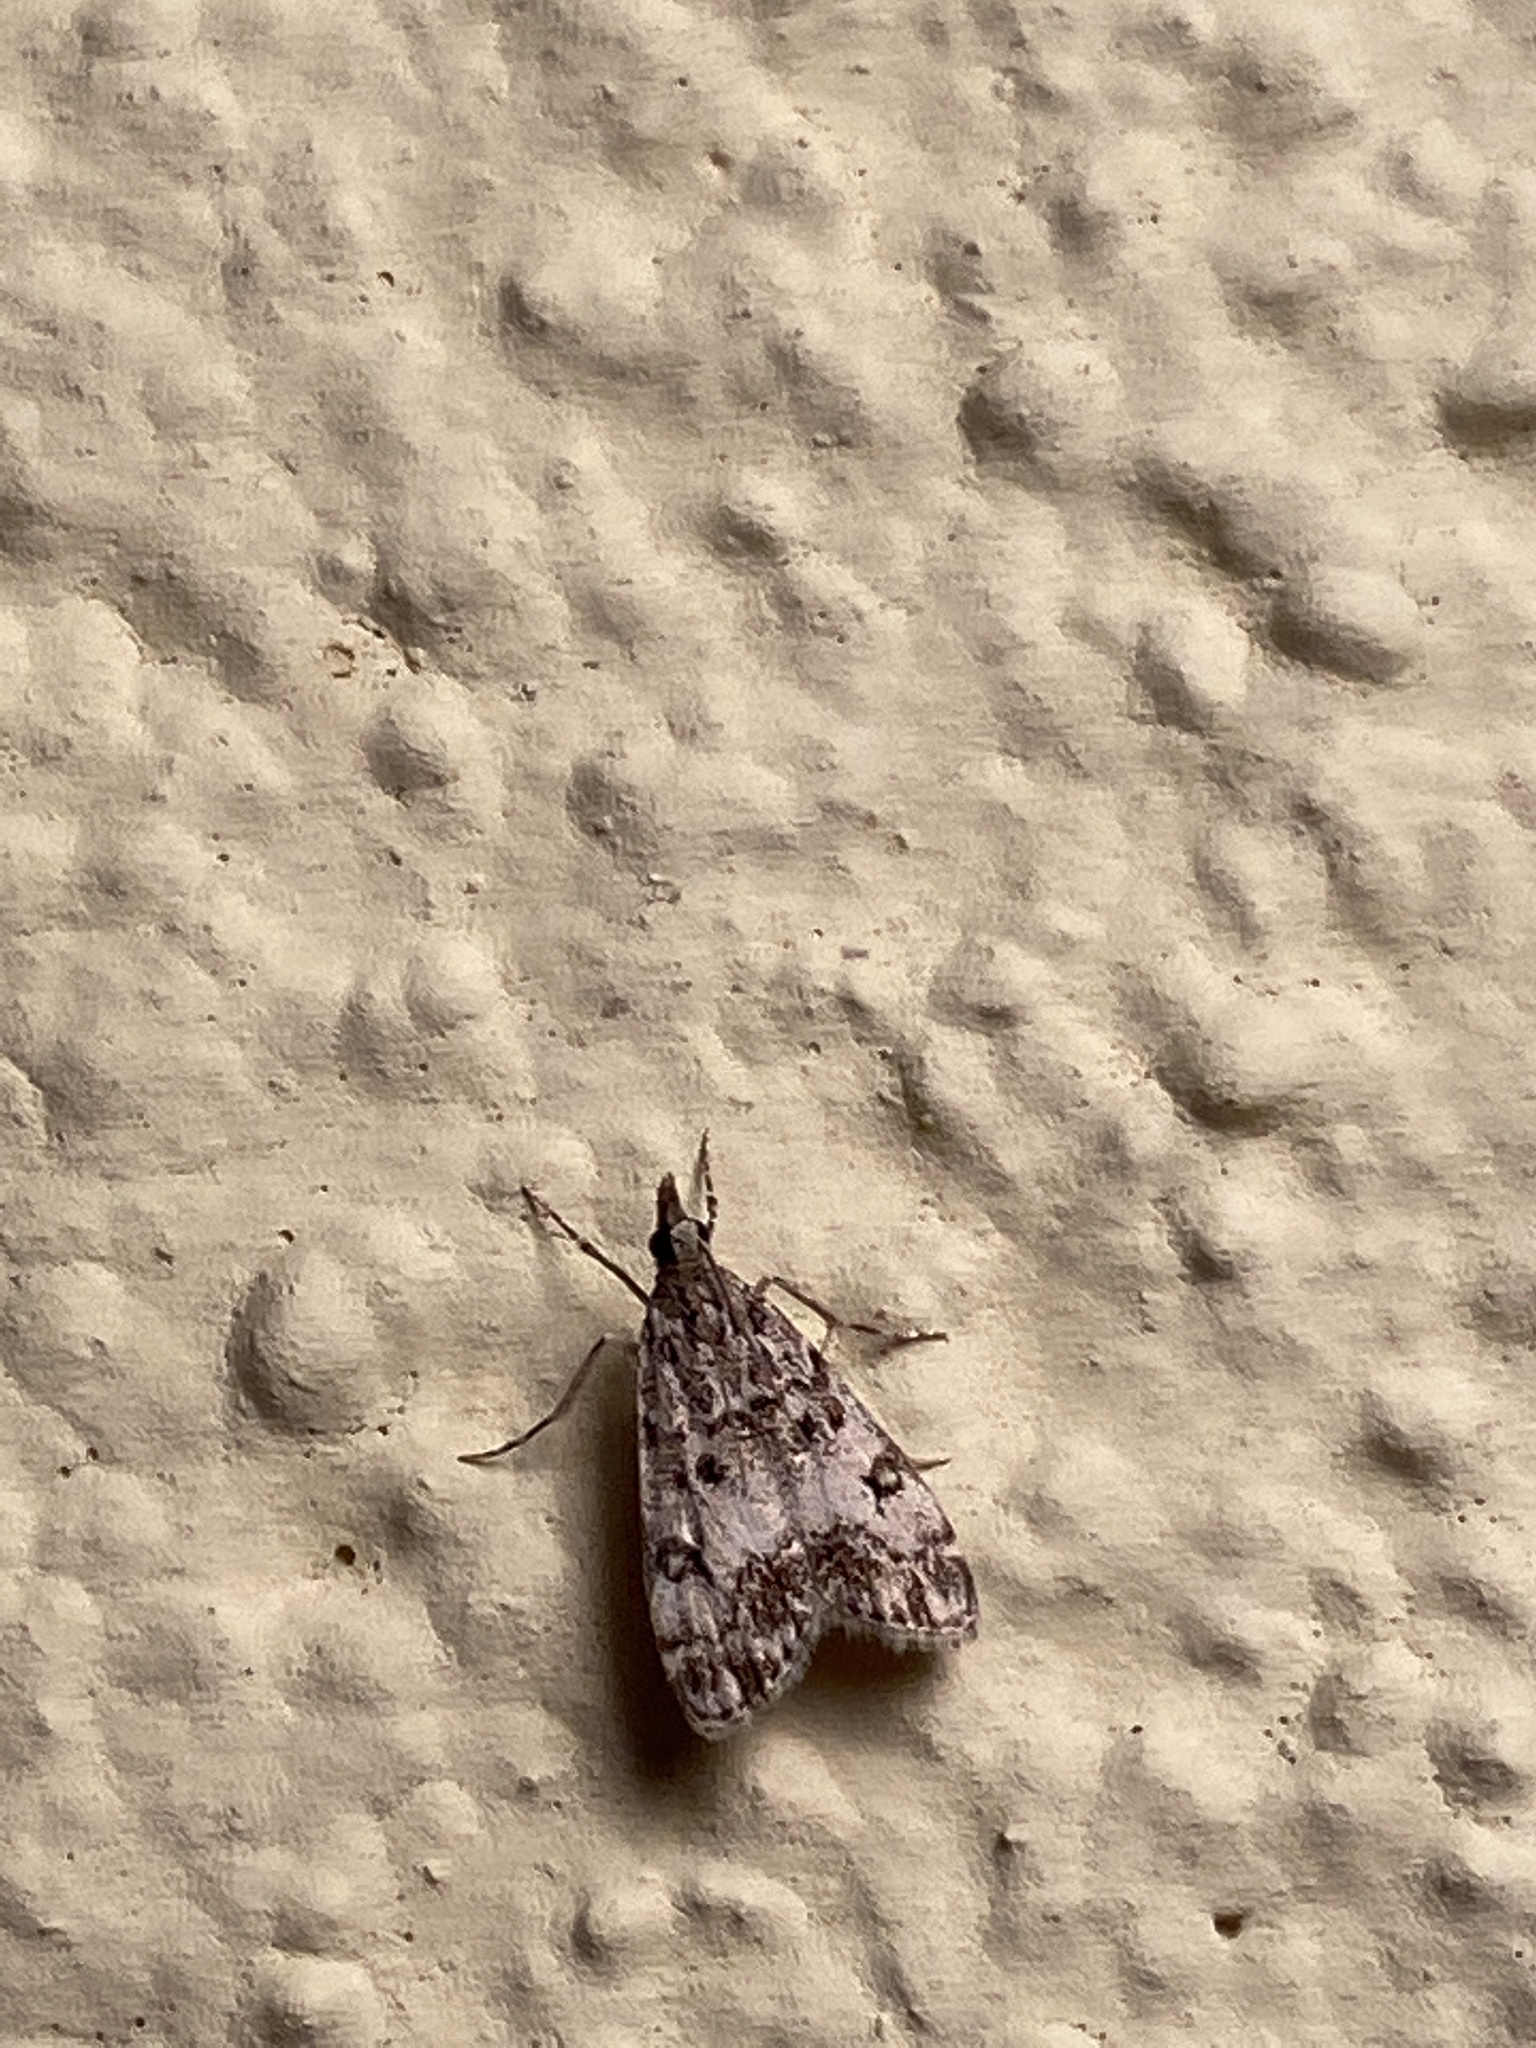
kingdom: Animalia
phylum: Arthropoda
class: Insecta
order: Lepidoptera
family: Crambidae
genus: Eudonia
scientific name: Eudonia lacustrata
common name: Little grey
